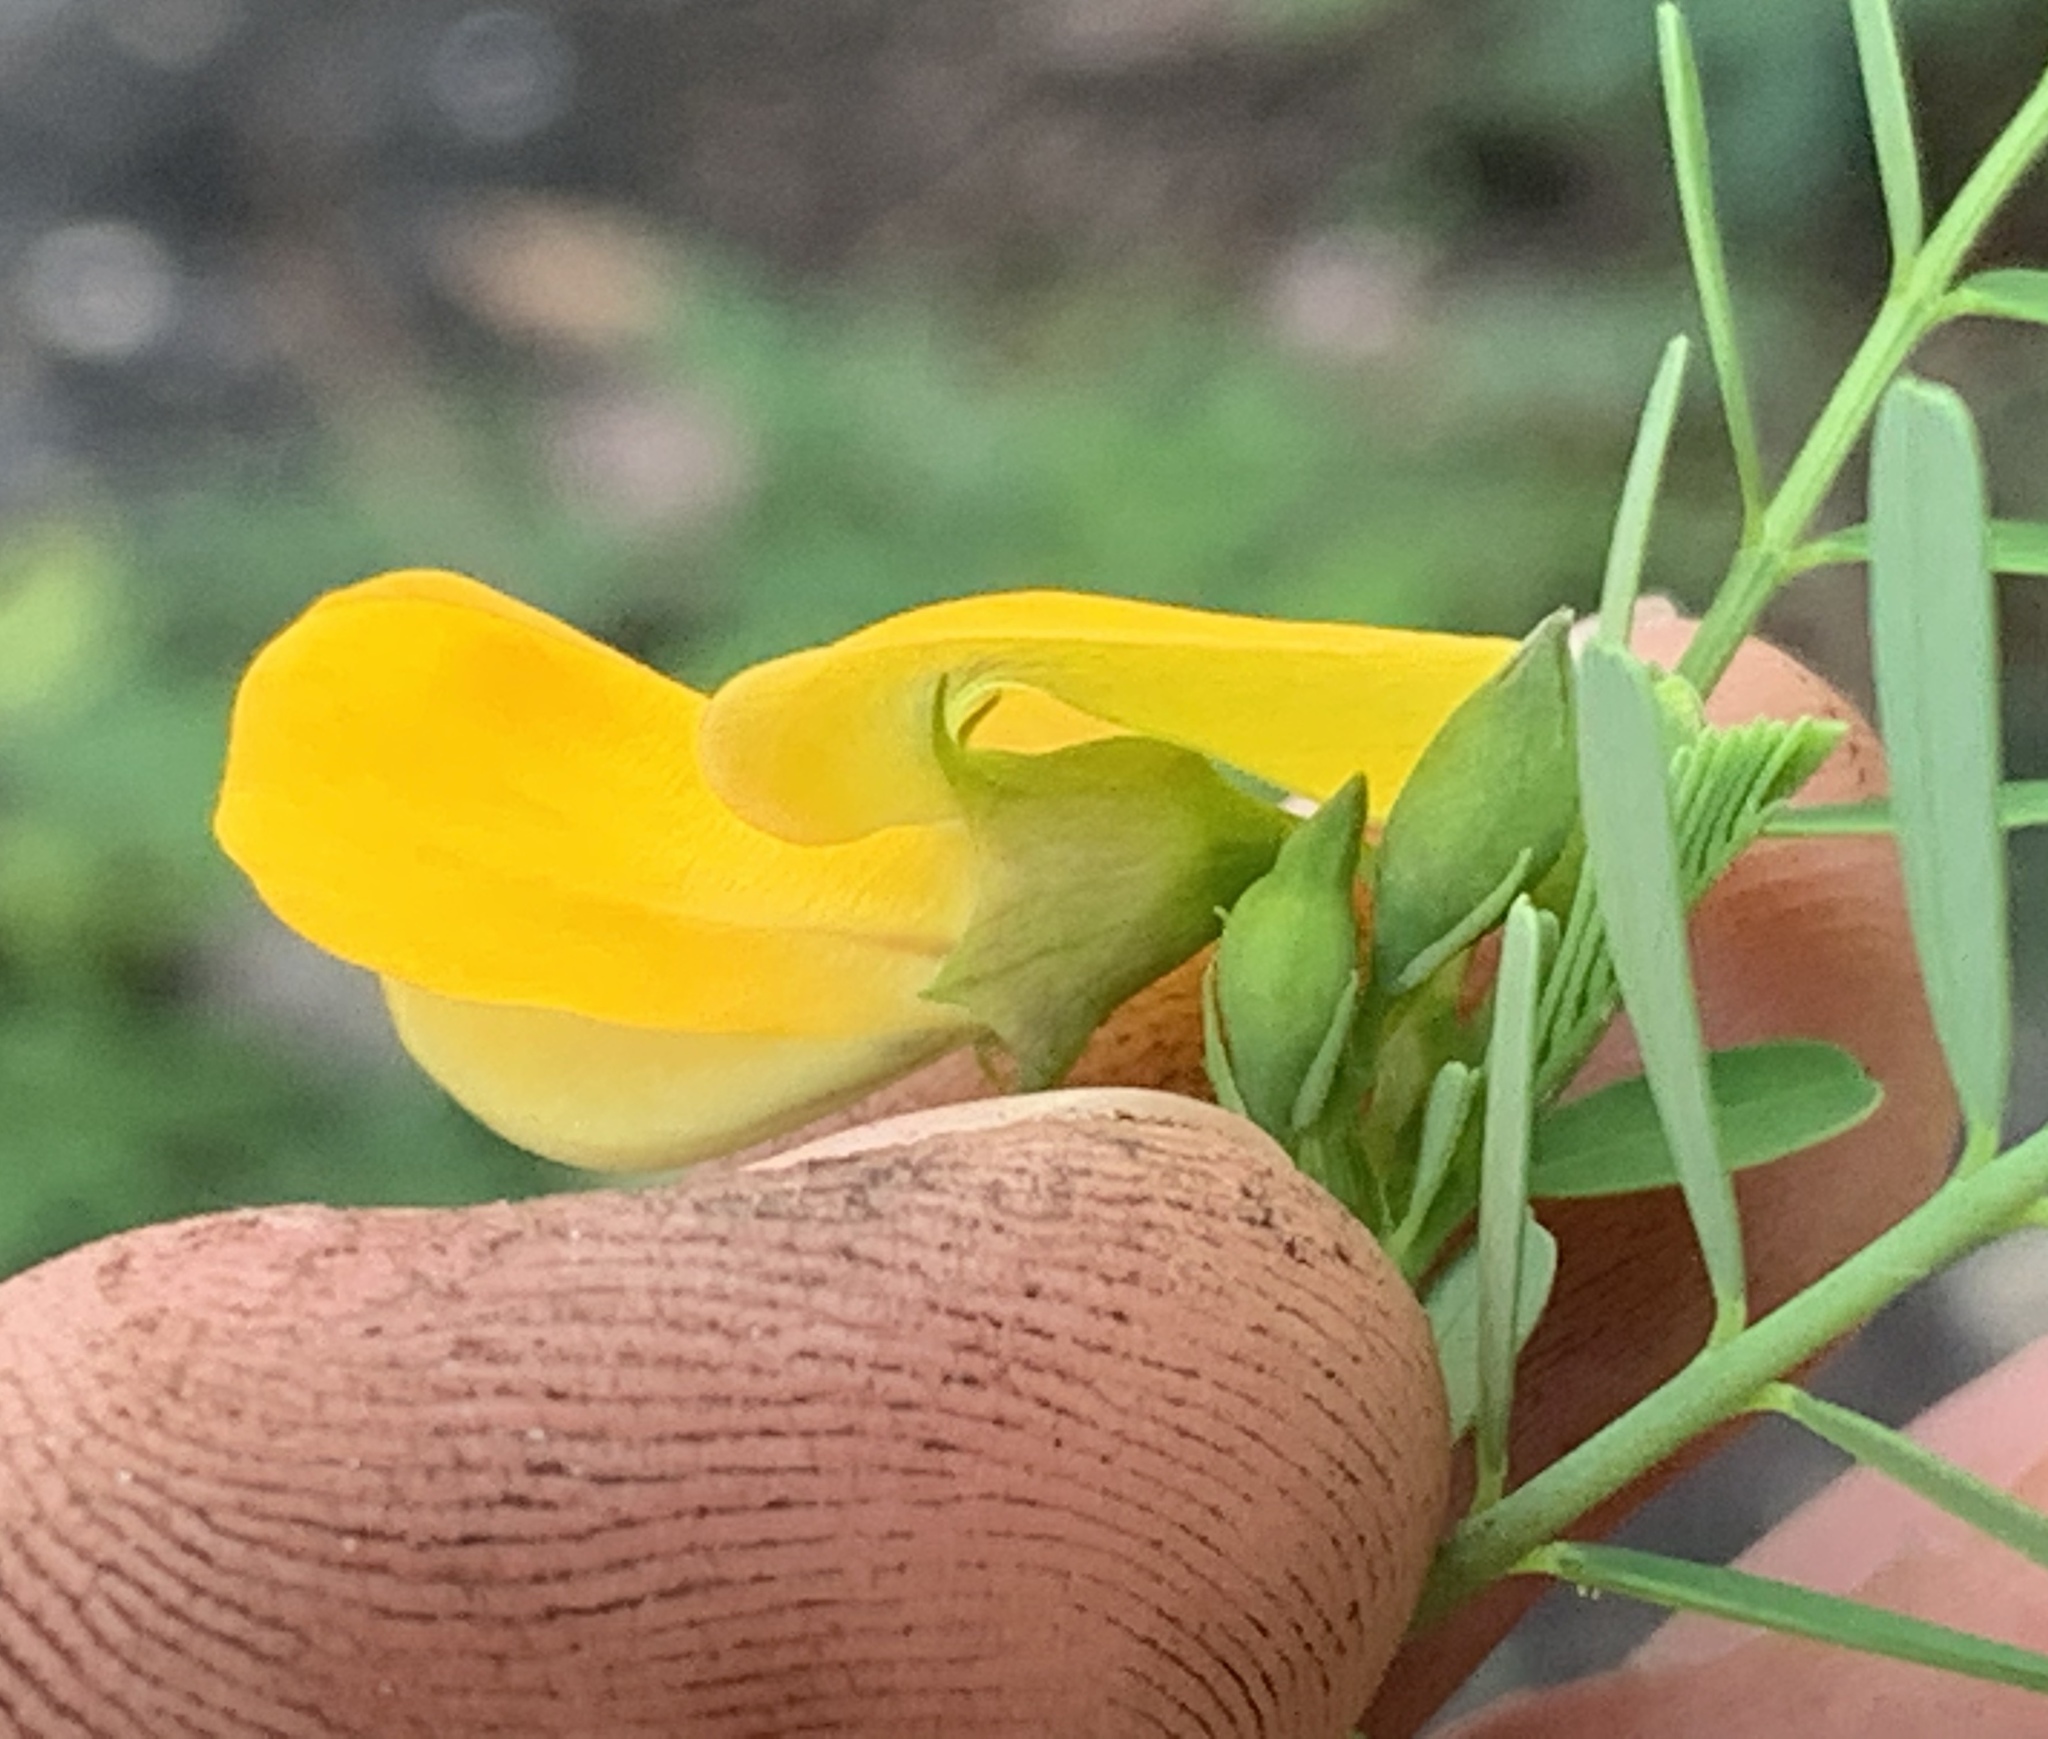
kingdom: Plantae
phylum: Tracheophyta
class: Magnoliopsida
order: Fabales
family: Fabaceae
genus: Sesbania
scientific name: Sesbania herbacea
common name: Bigpod sesbania
